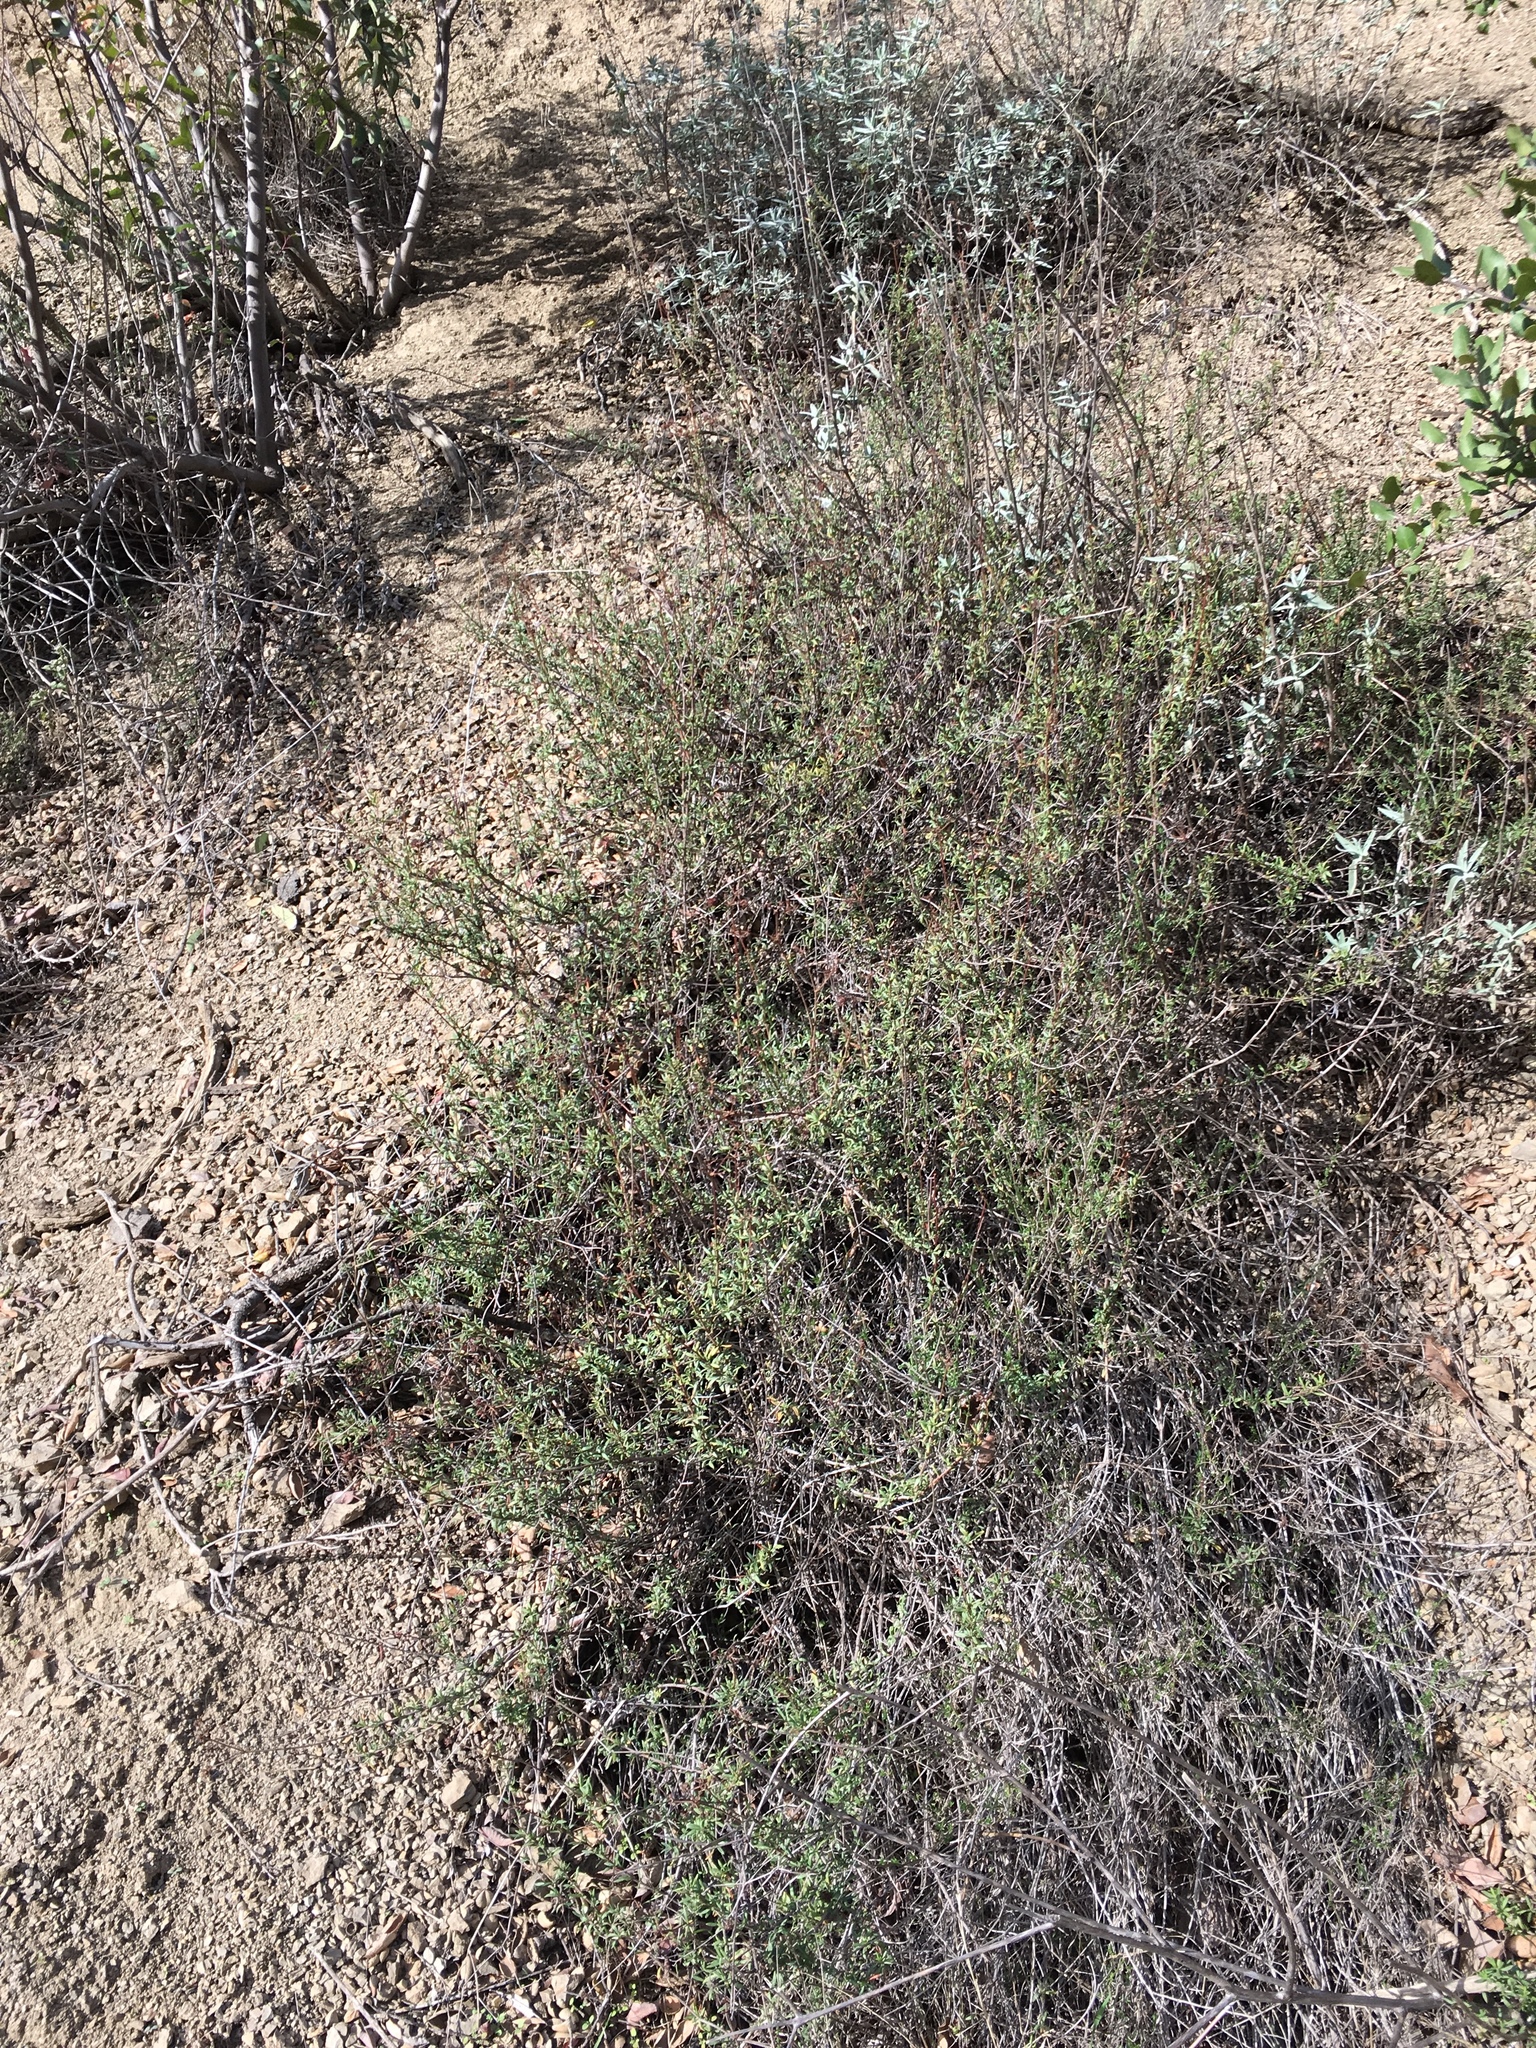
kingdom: Plantae
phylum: Tracheophyta
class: Magnoliopsida
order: Caryophyllales
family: Polygonaceae
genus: Eriogonum
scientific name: Eriogonum fasciculatum
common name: California wild buckwheat
